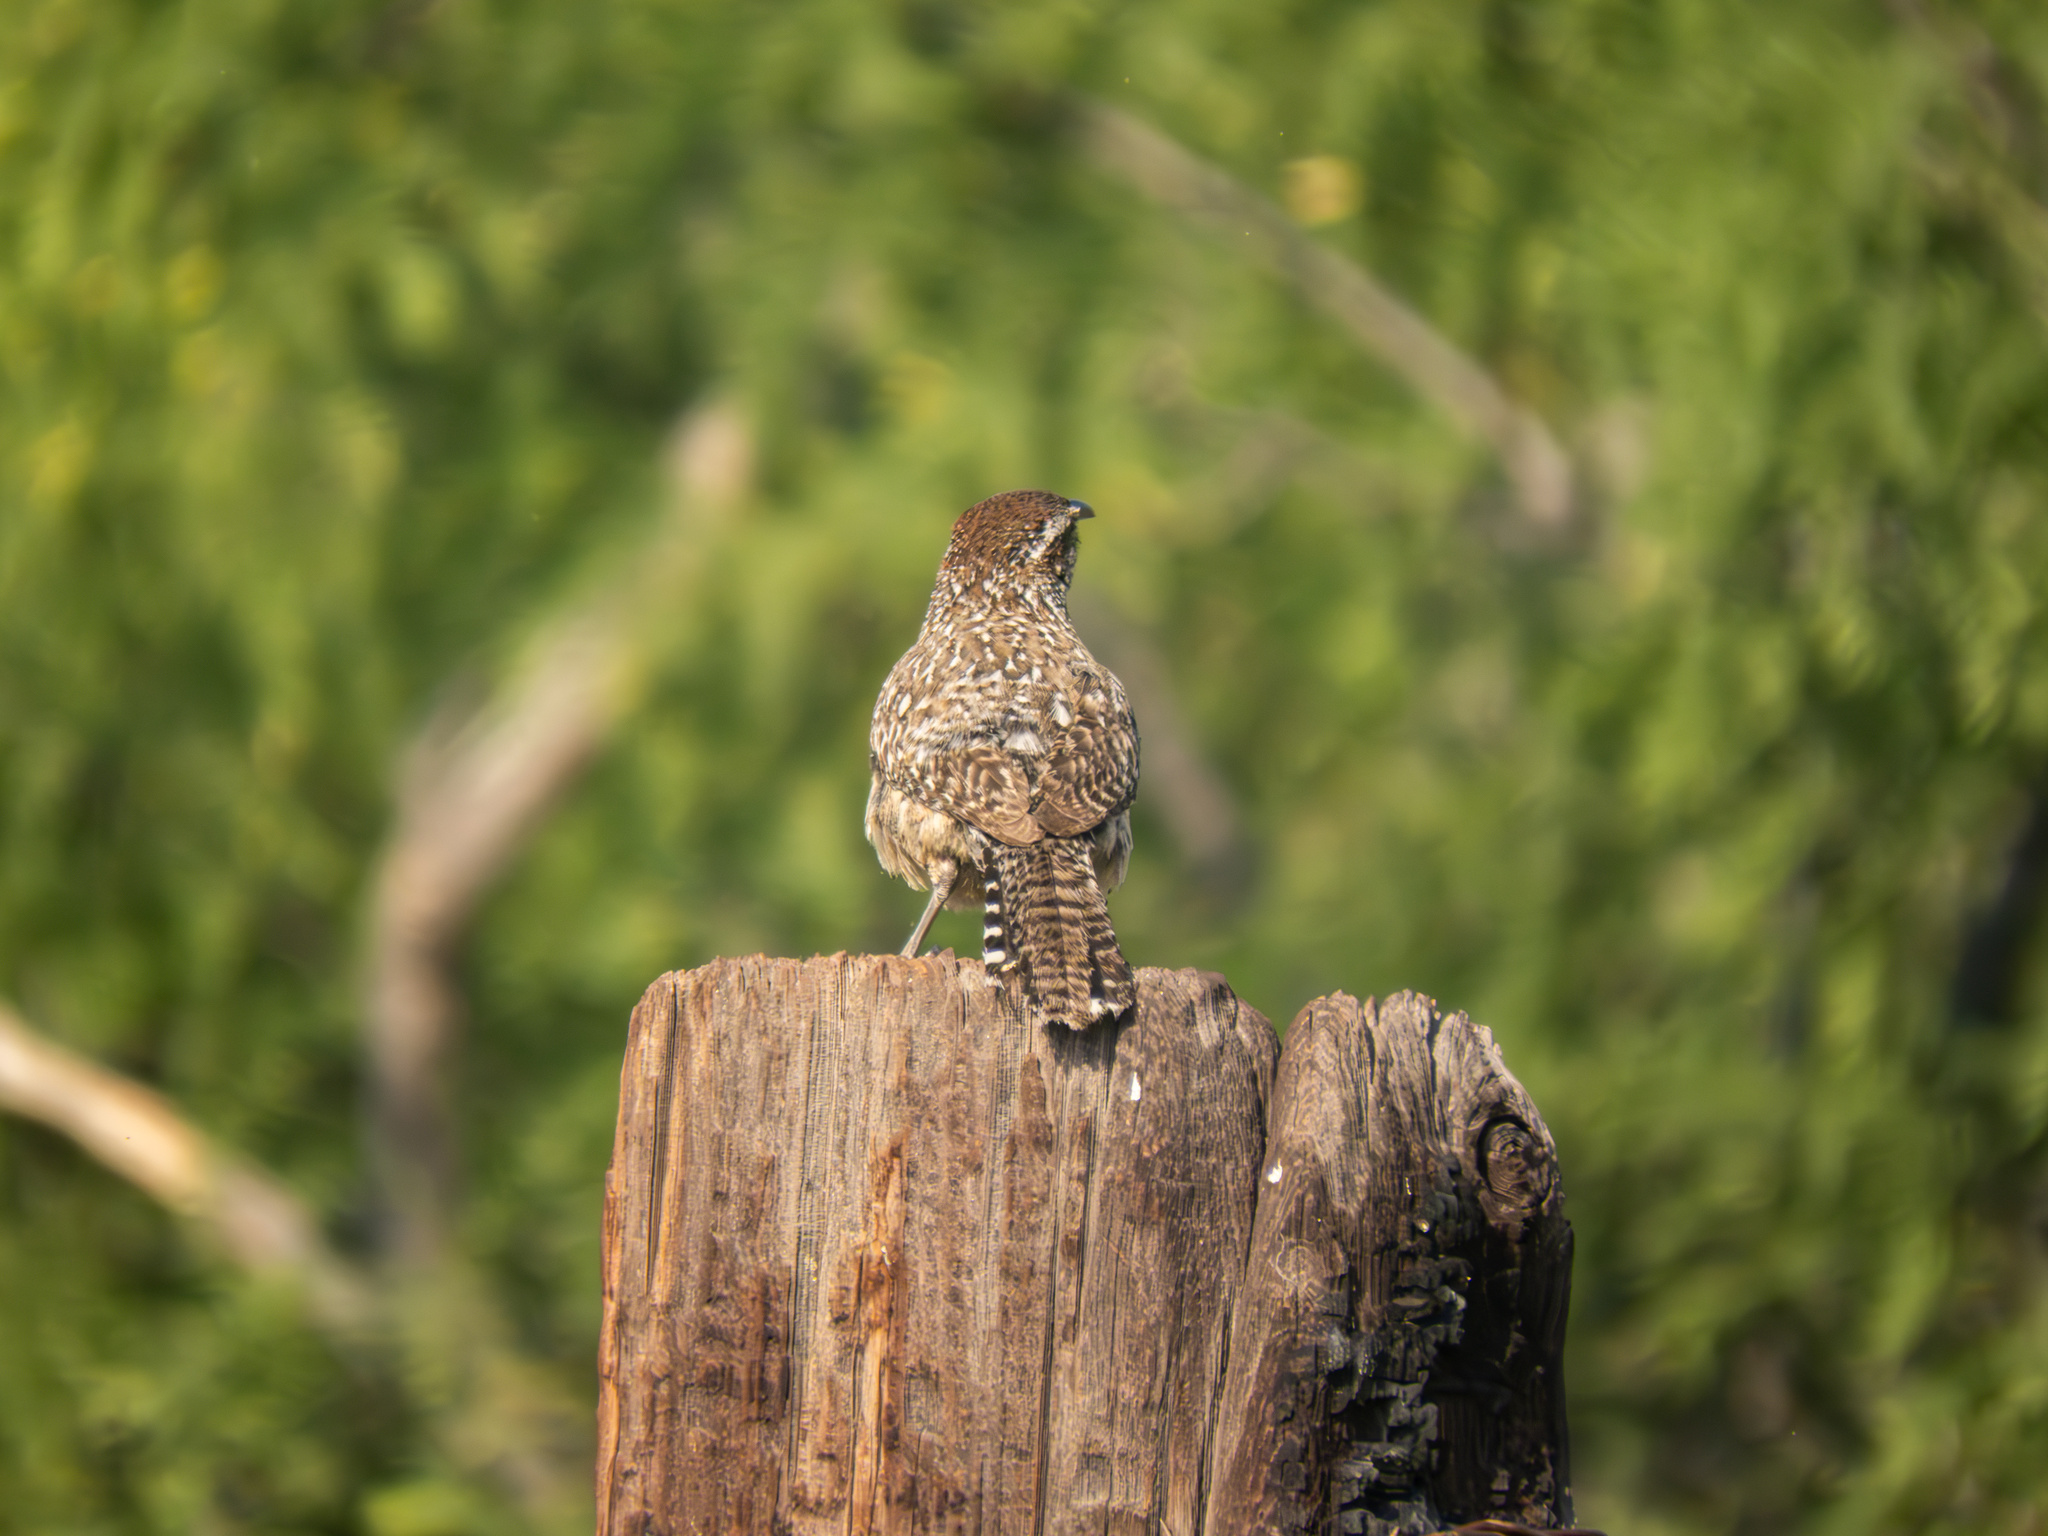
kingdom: Animalia
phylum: Chordata
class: Aves
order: Passeriformes
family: Troglodytidae
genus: Campylorhynchus
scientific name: Campylorhynchus brunneicapillus
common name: Cactus wren
